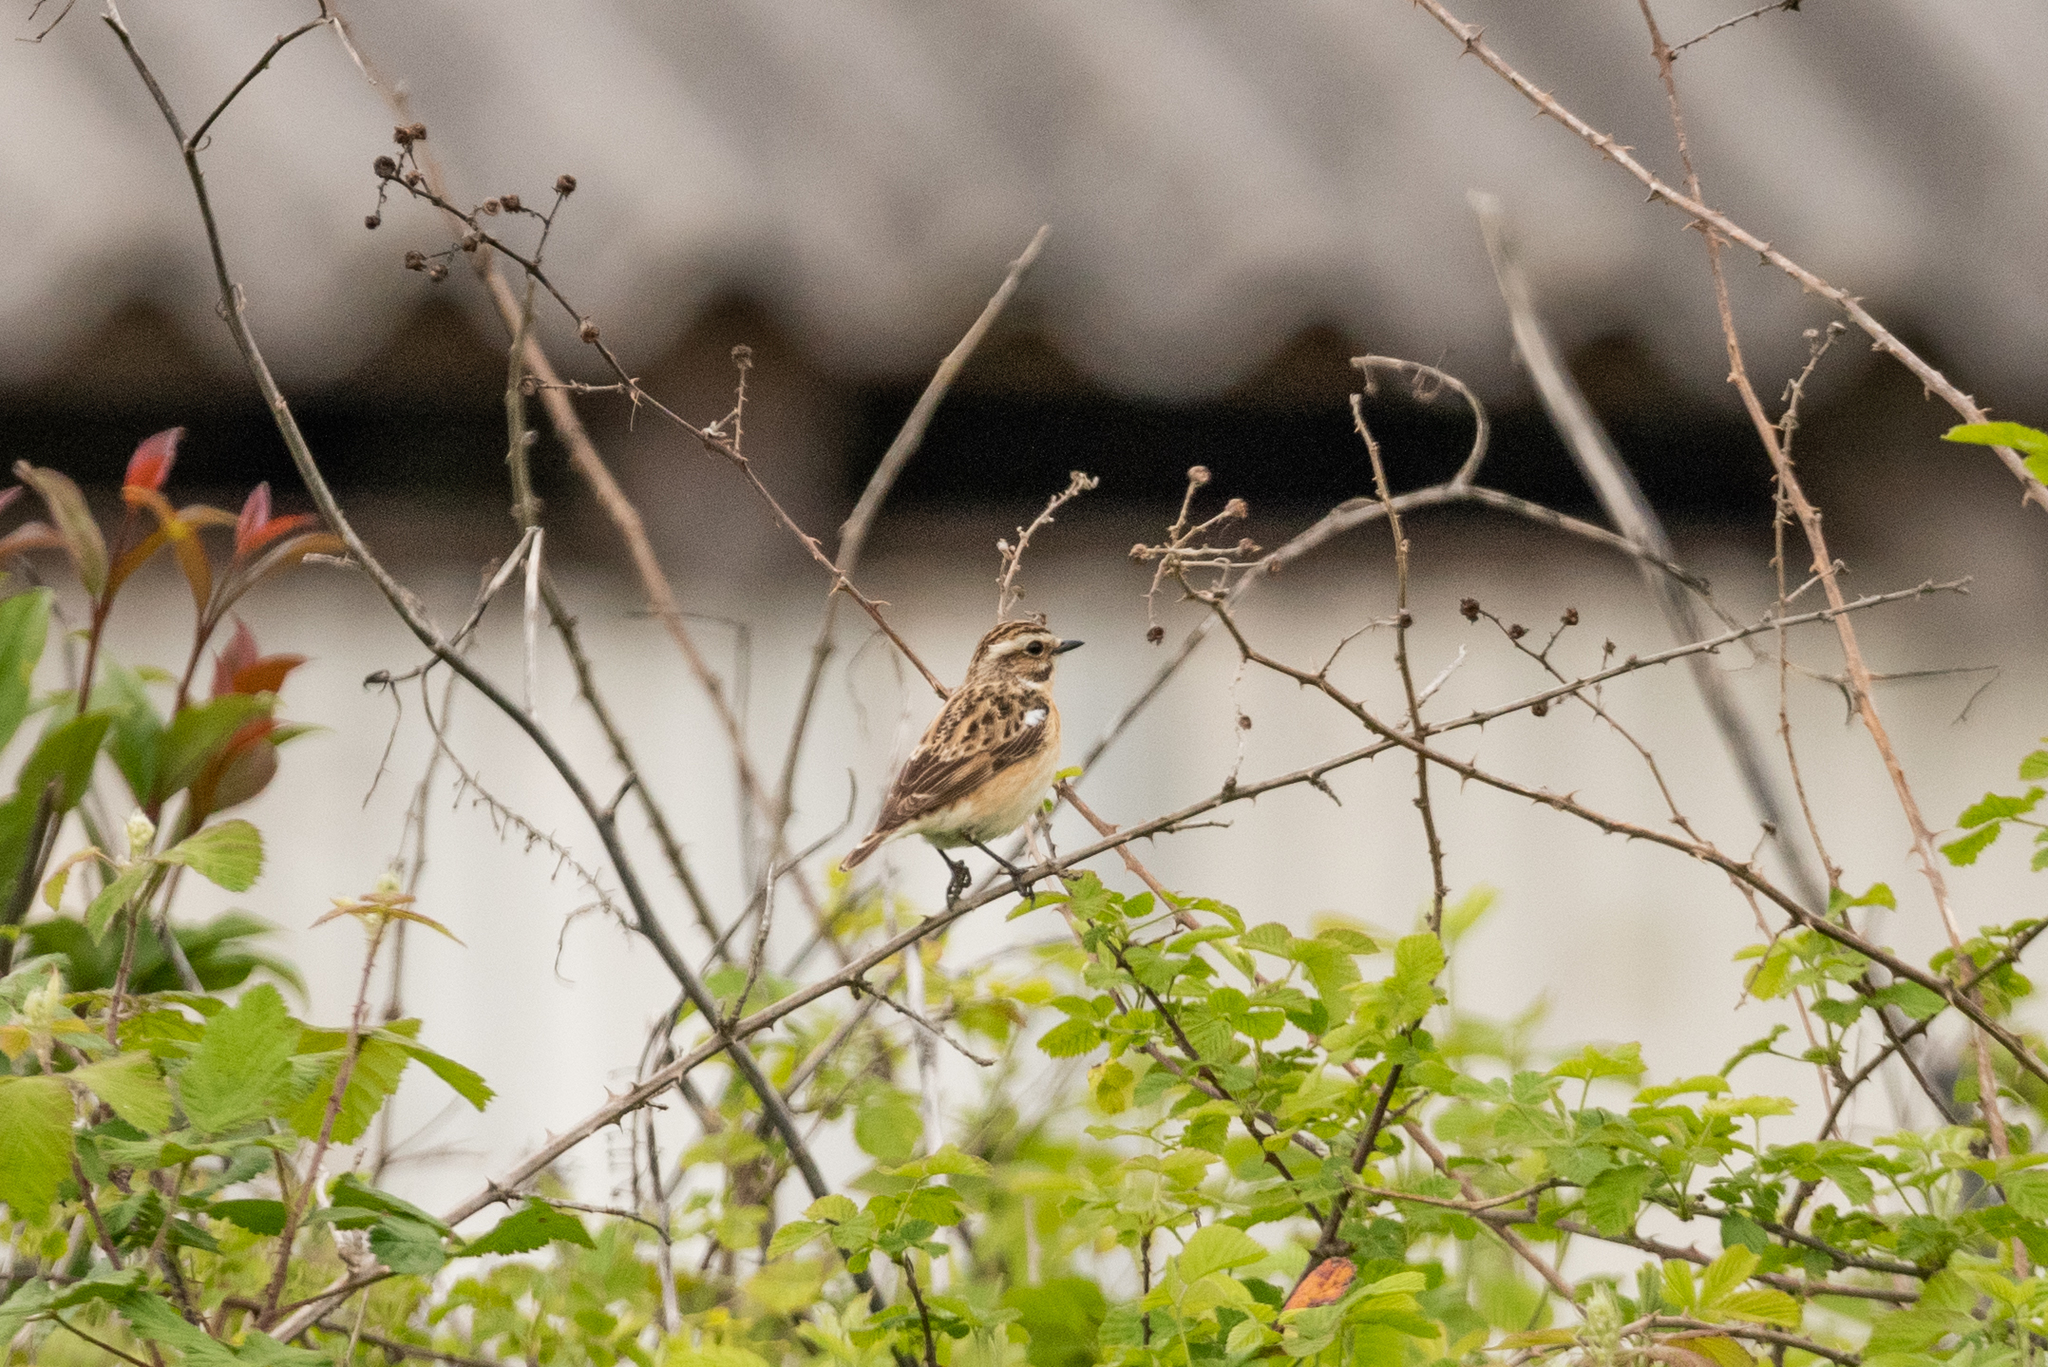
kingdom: Animalia
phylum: Chordata
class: Aves
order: Passeriformes
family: Muscicapidae
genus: Saxicola
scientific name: Saxicola rubetra
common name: Whinchat
